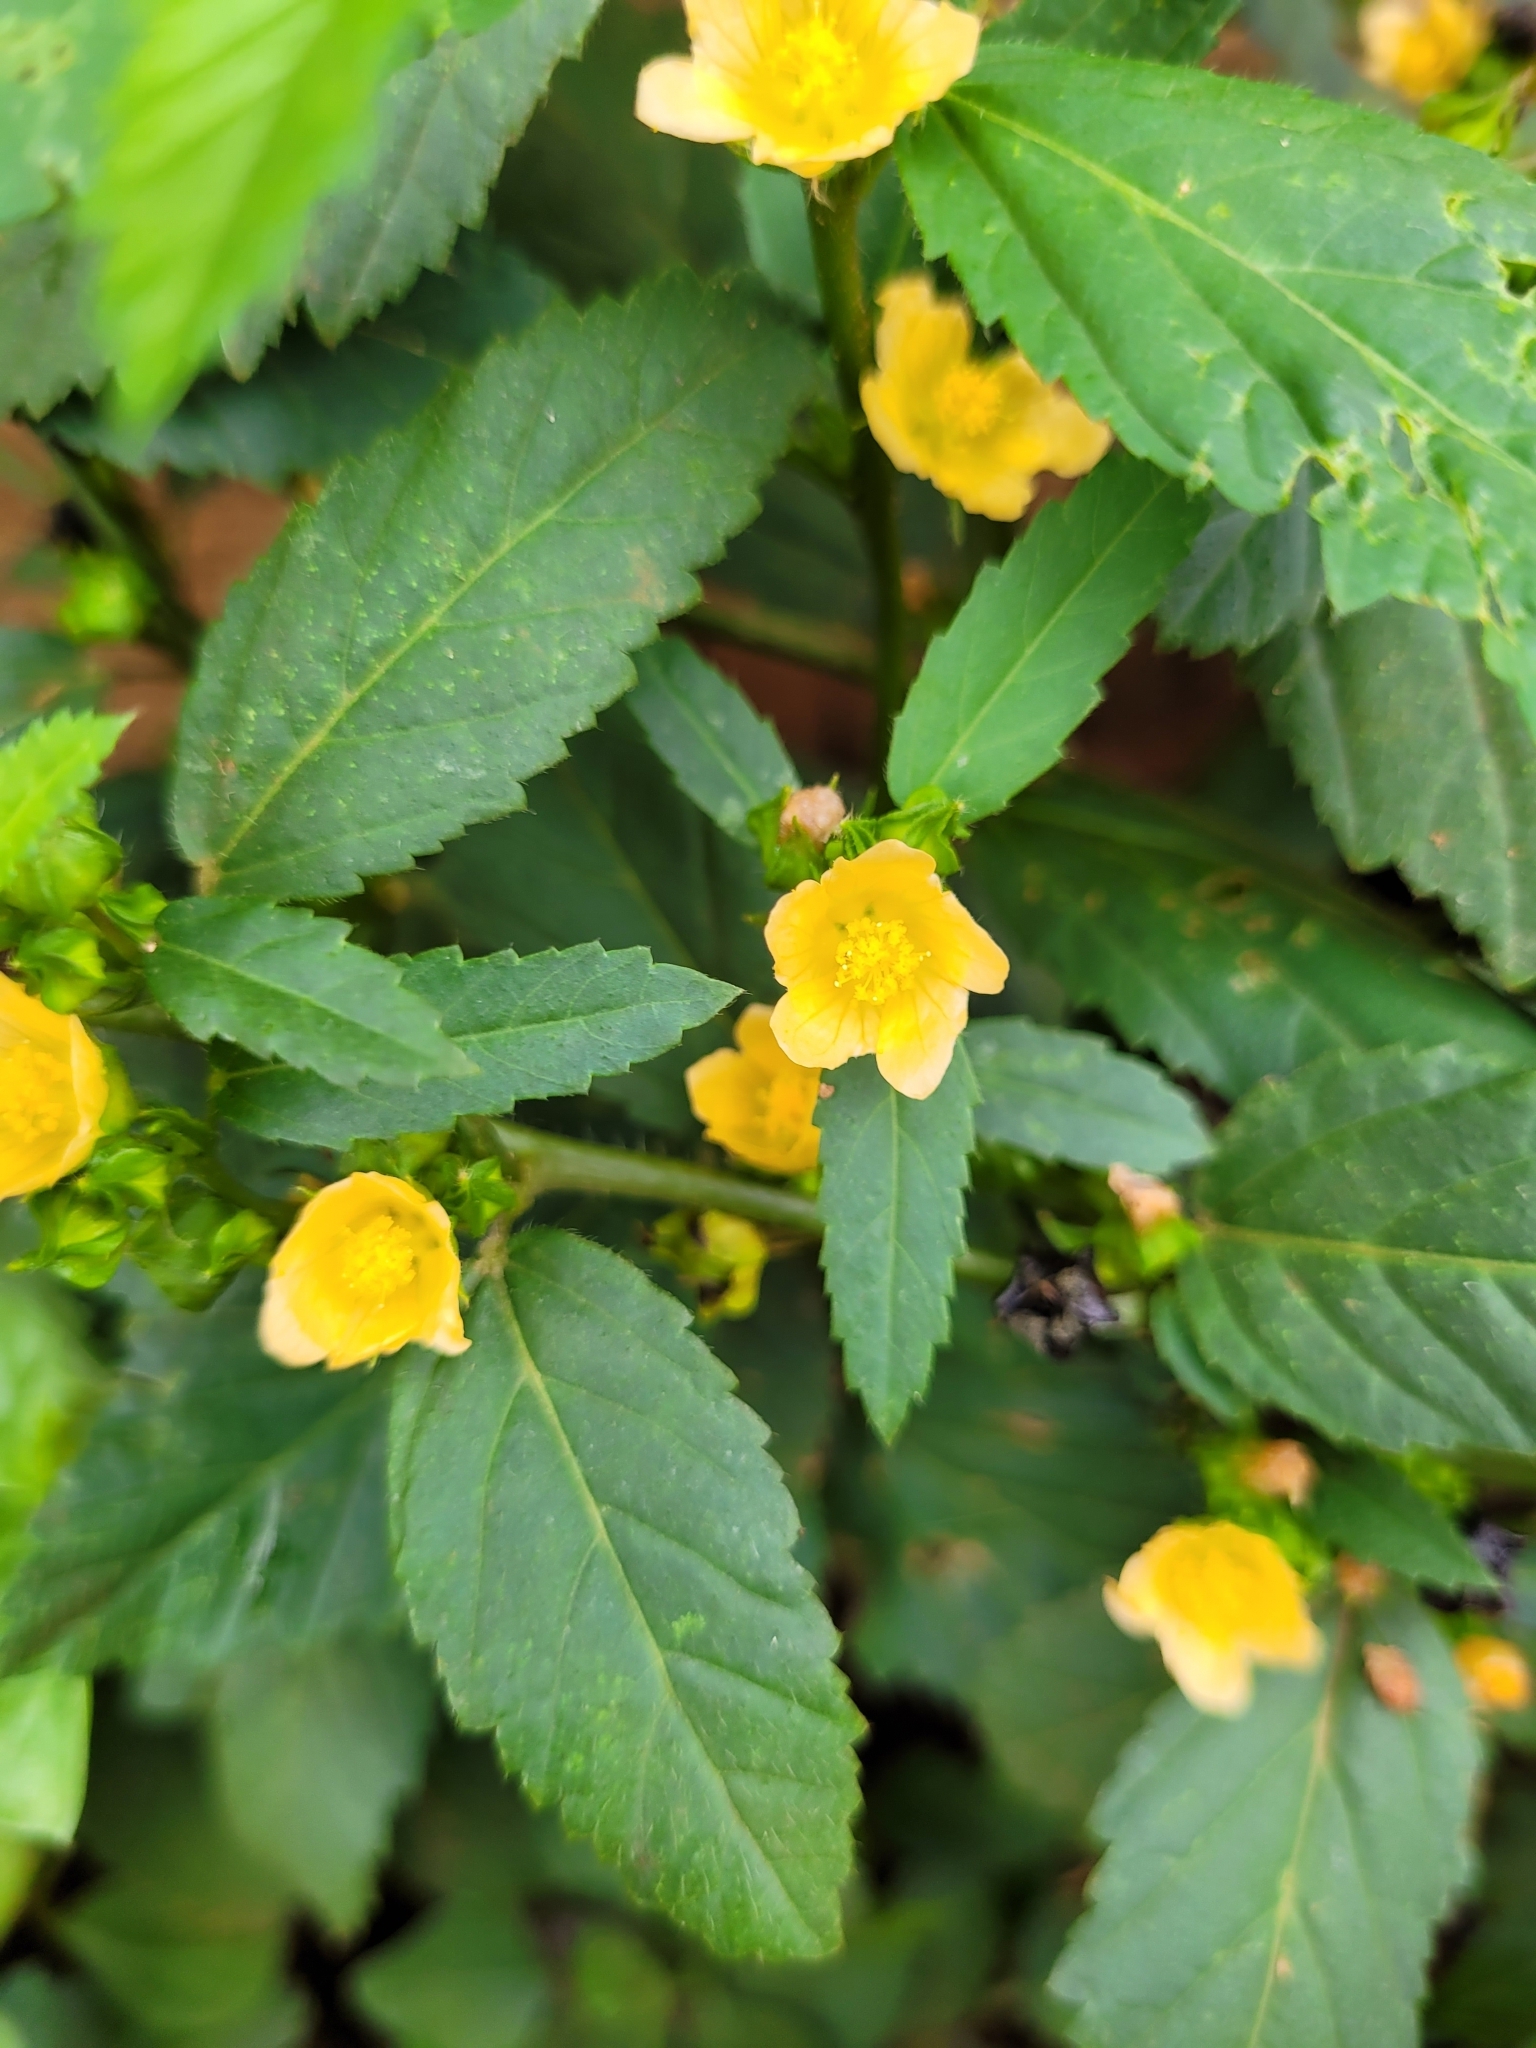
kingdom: Plantae
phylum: Tracheophyta
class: Magnoliopsida
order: Malvales
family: Malvaceae
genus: Sida
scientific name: Sida acuta
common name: Common wireweed
